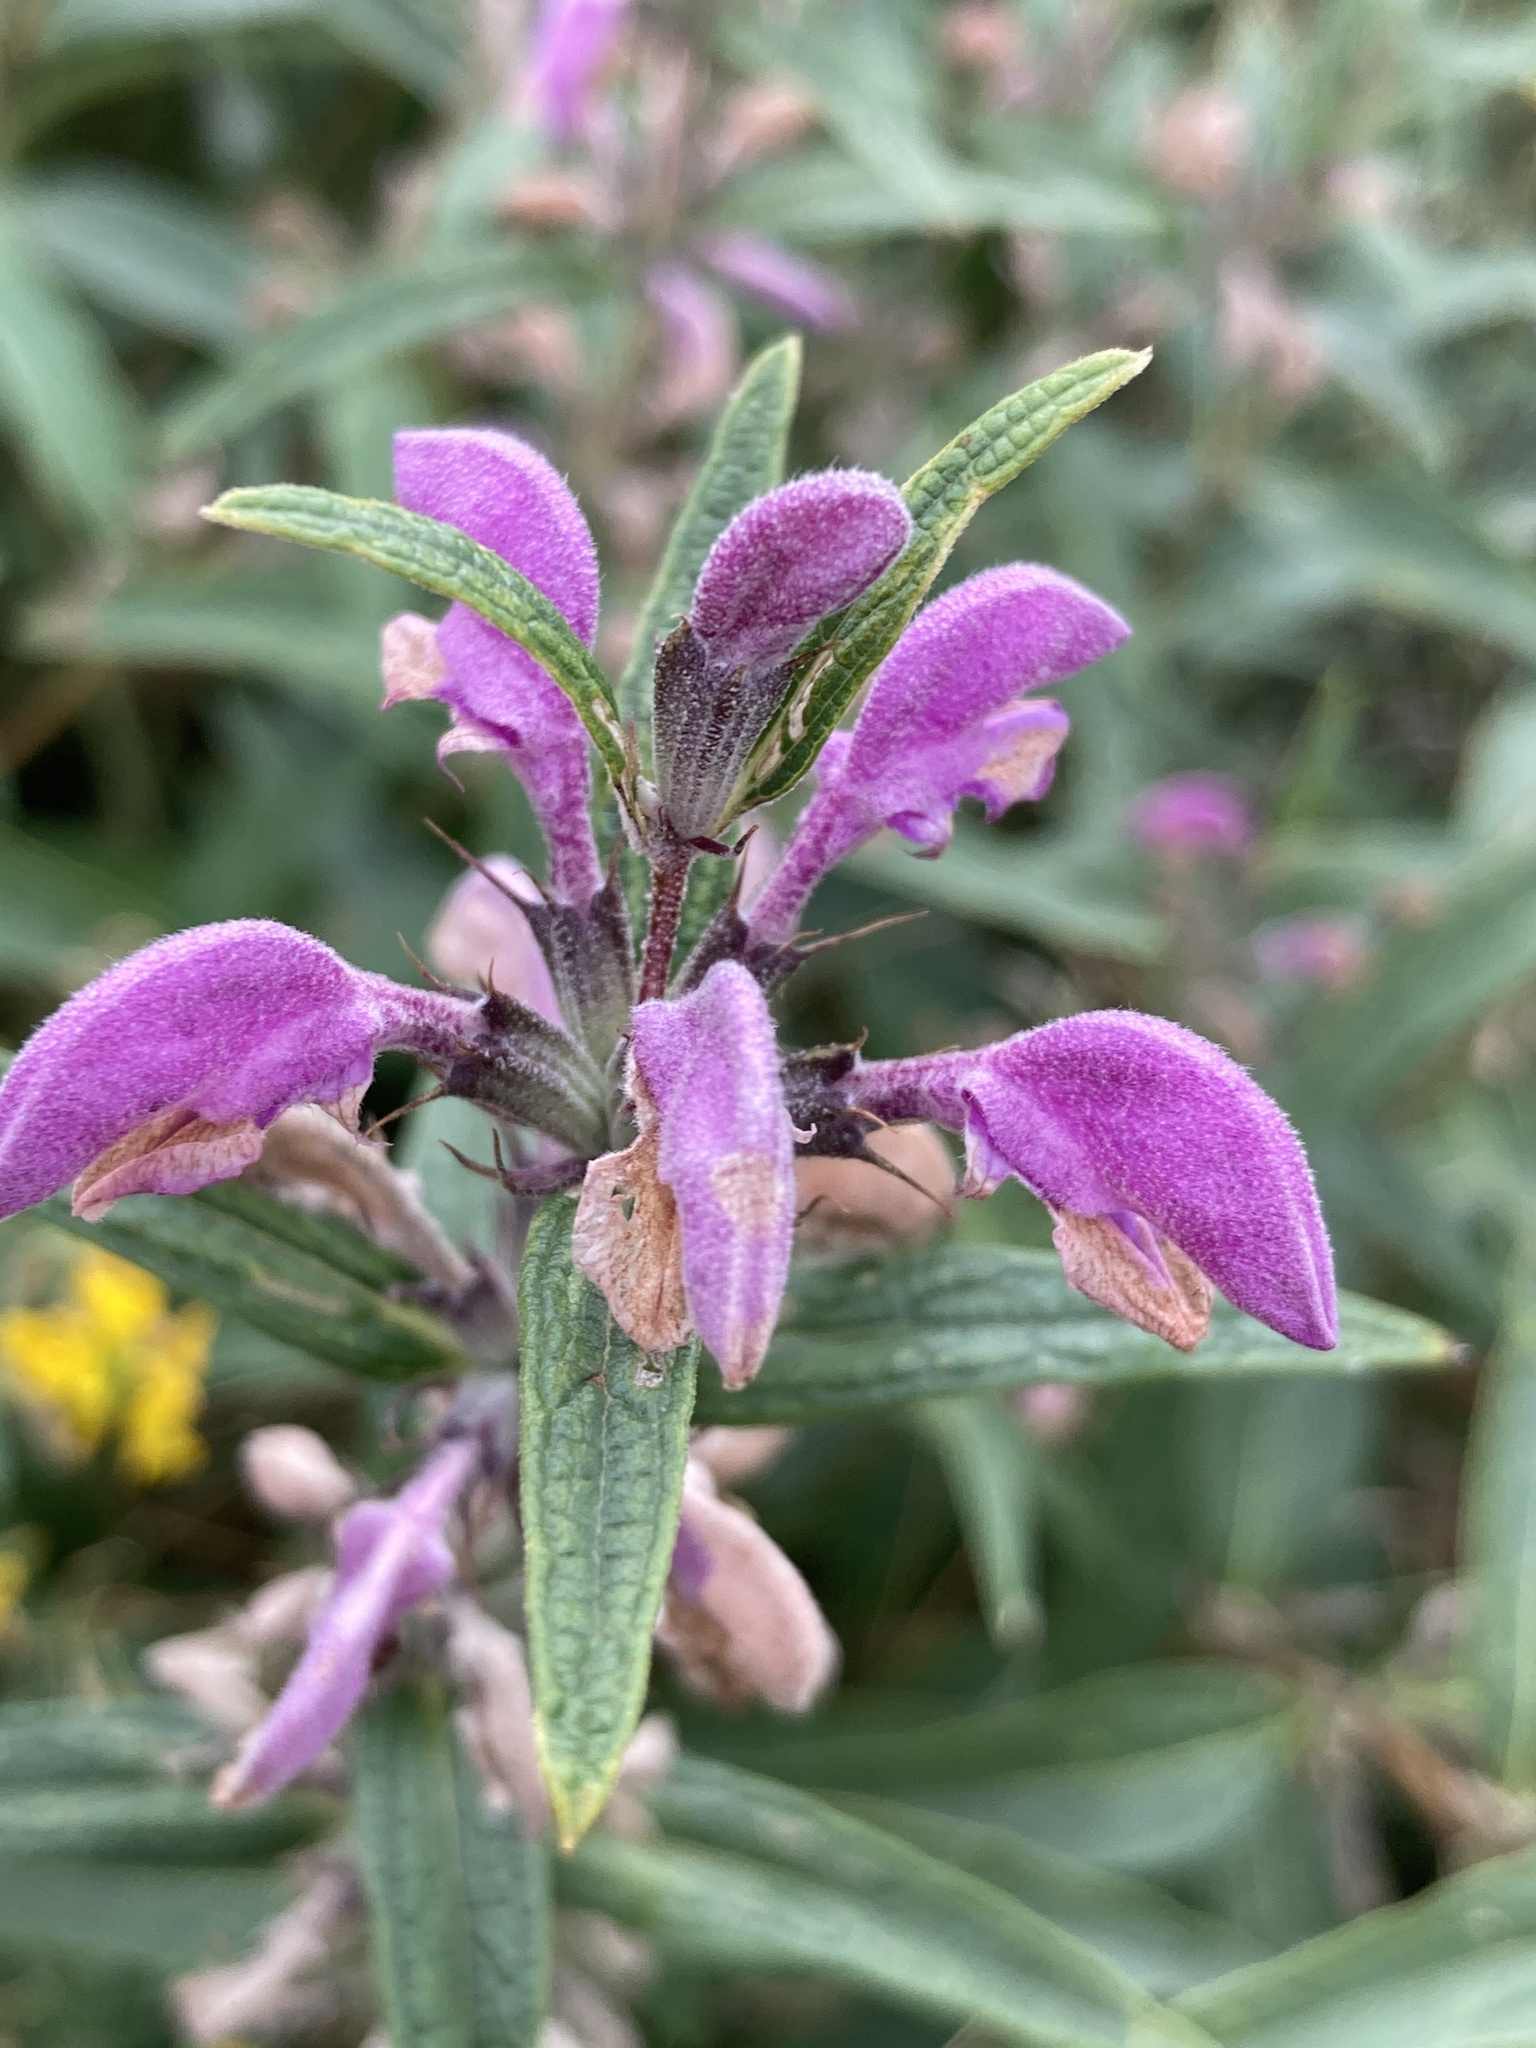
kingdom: Plantae
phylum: Tracheophyta
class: Magnoliopsida
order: Lamiales
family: Lamiaceae
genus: Phlomis
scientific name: Phlomis herba-venti
